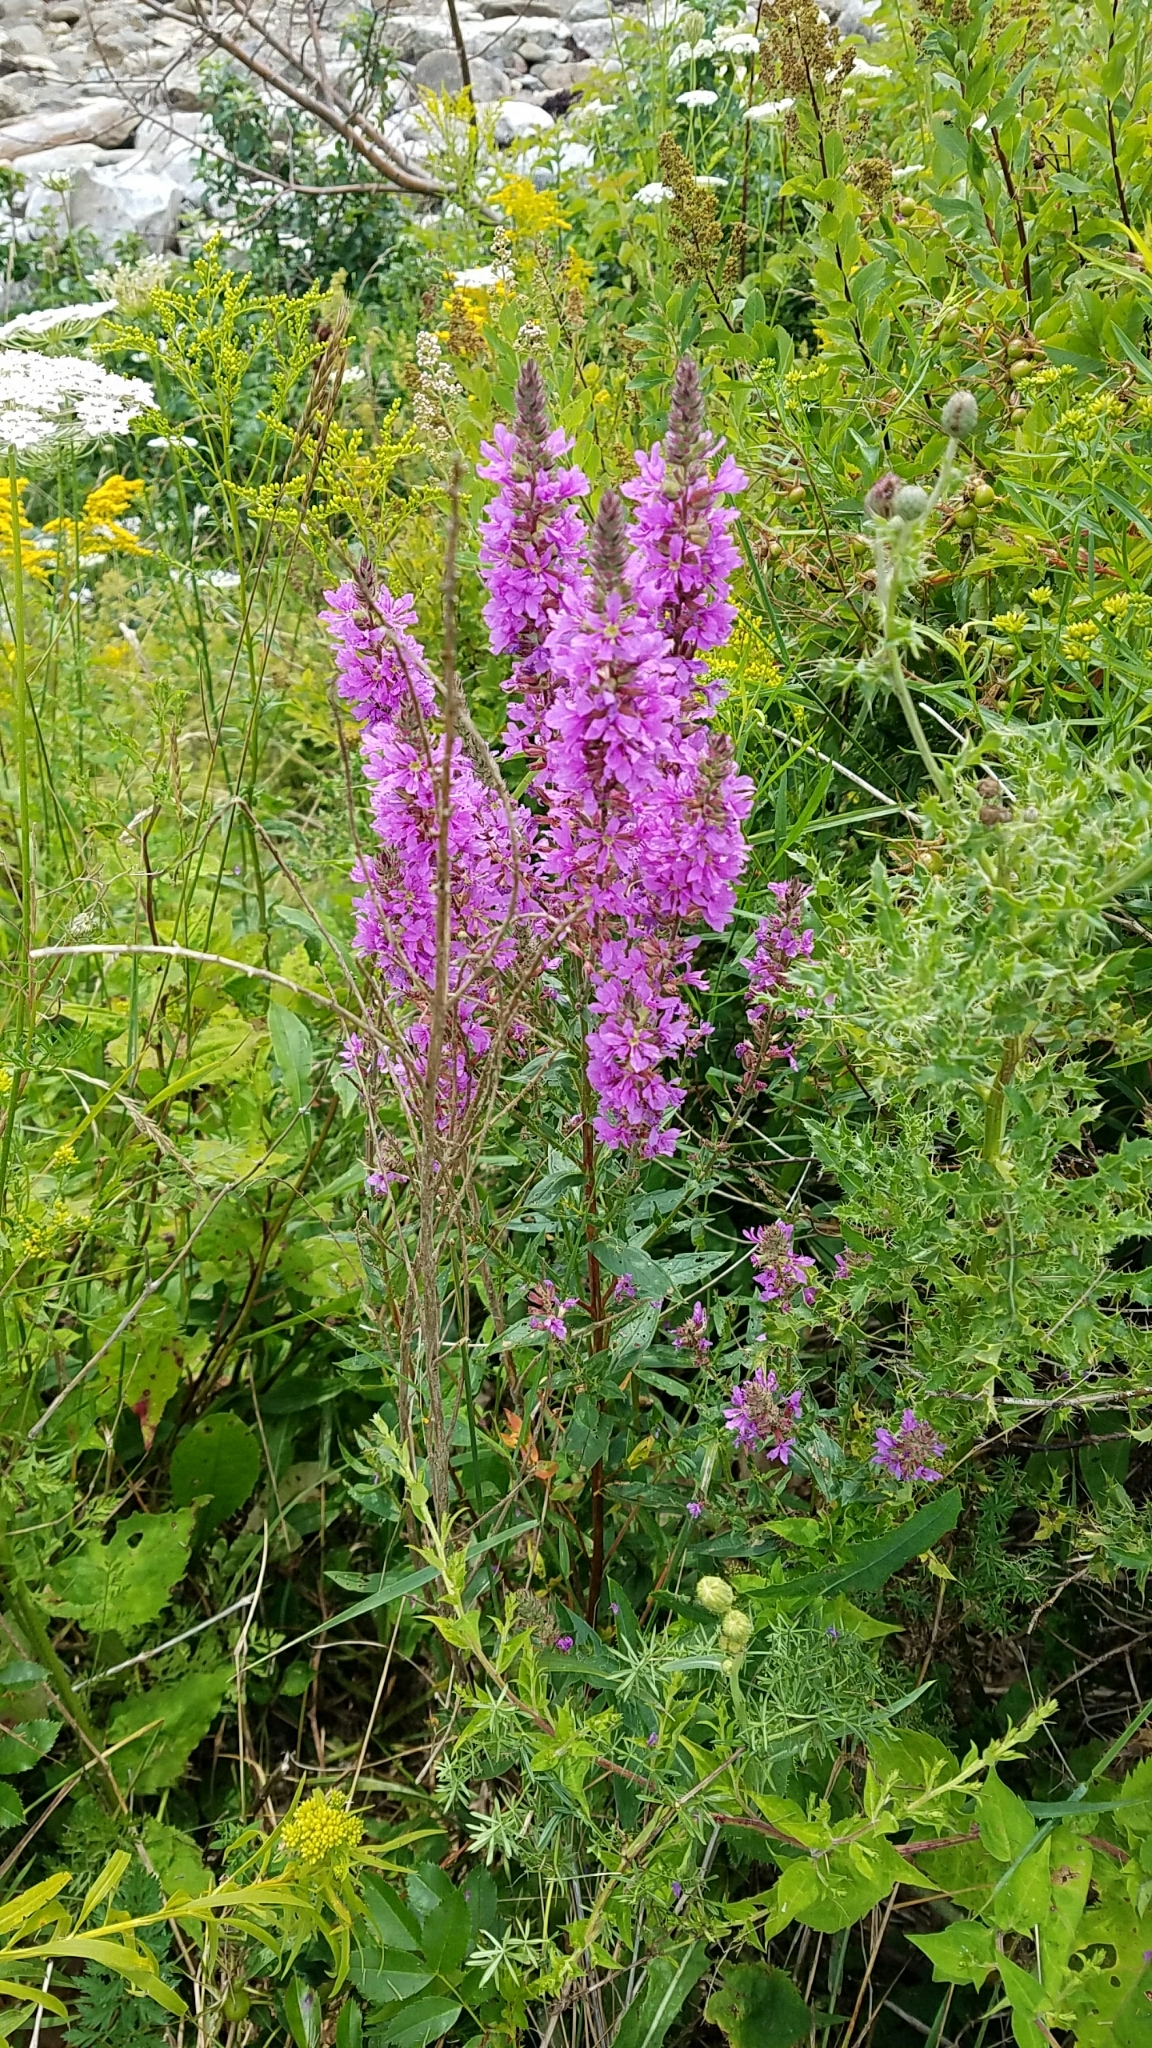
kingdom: Plantae
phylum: Tracheophyta
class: Magnoliopsida
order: Myrtales
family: Lythraceae
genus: Lythrum
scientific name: Lythrum salicaria
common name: Purple loosestrife
